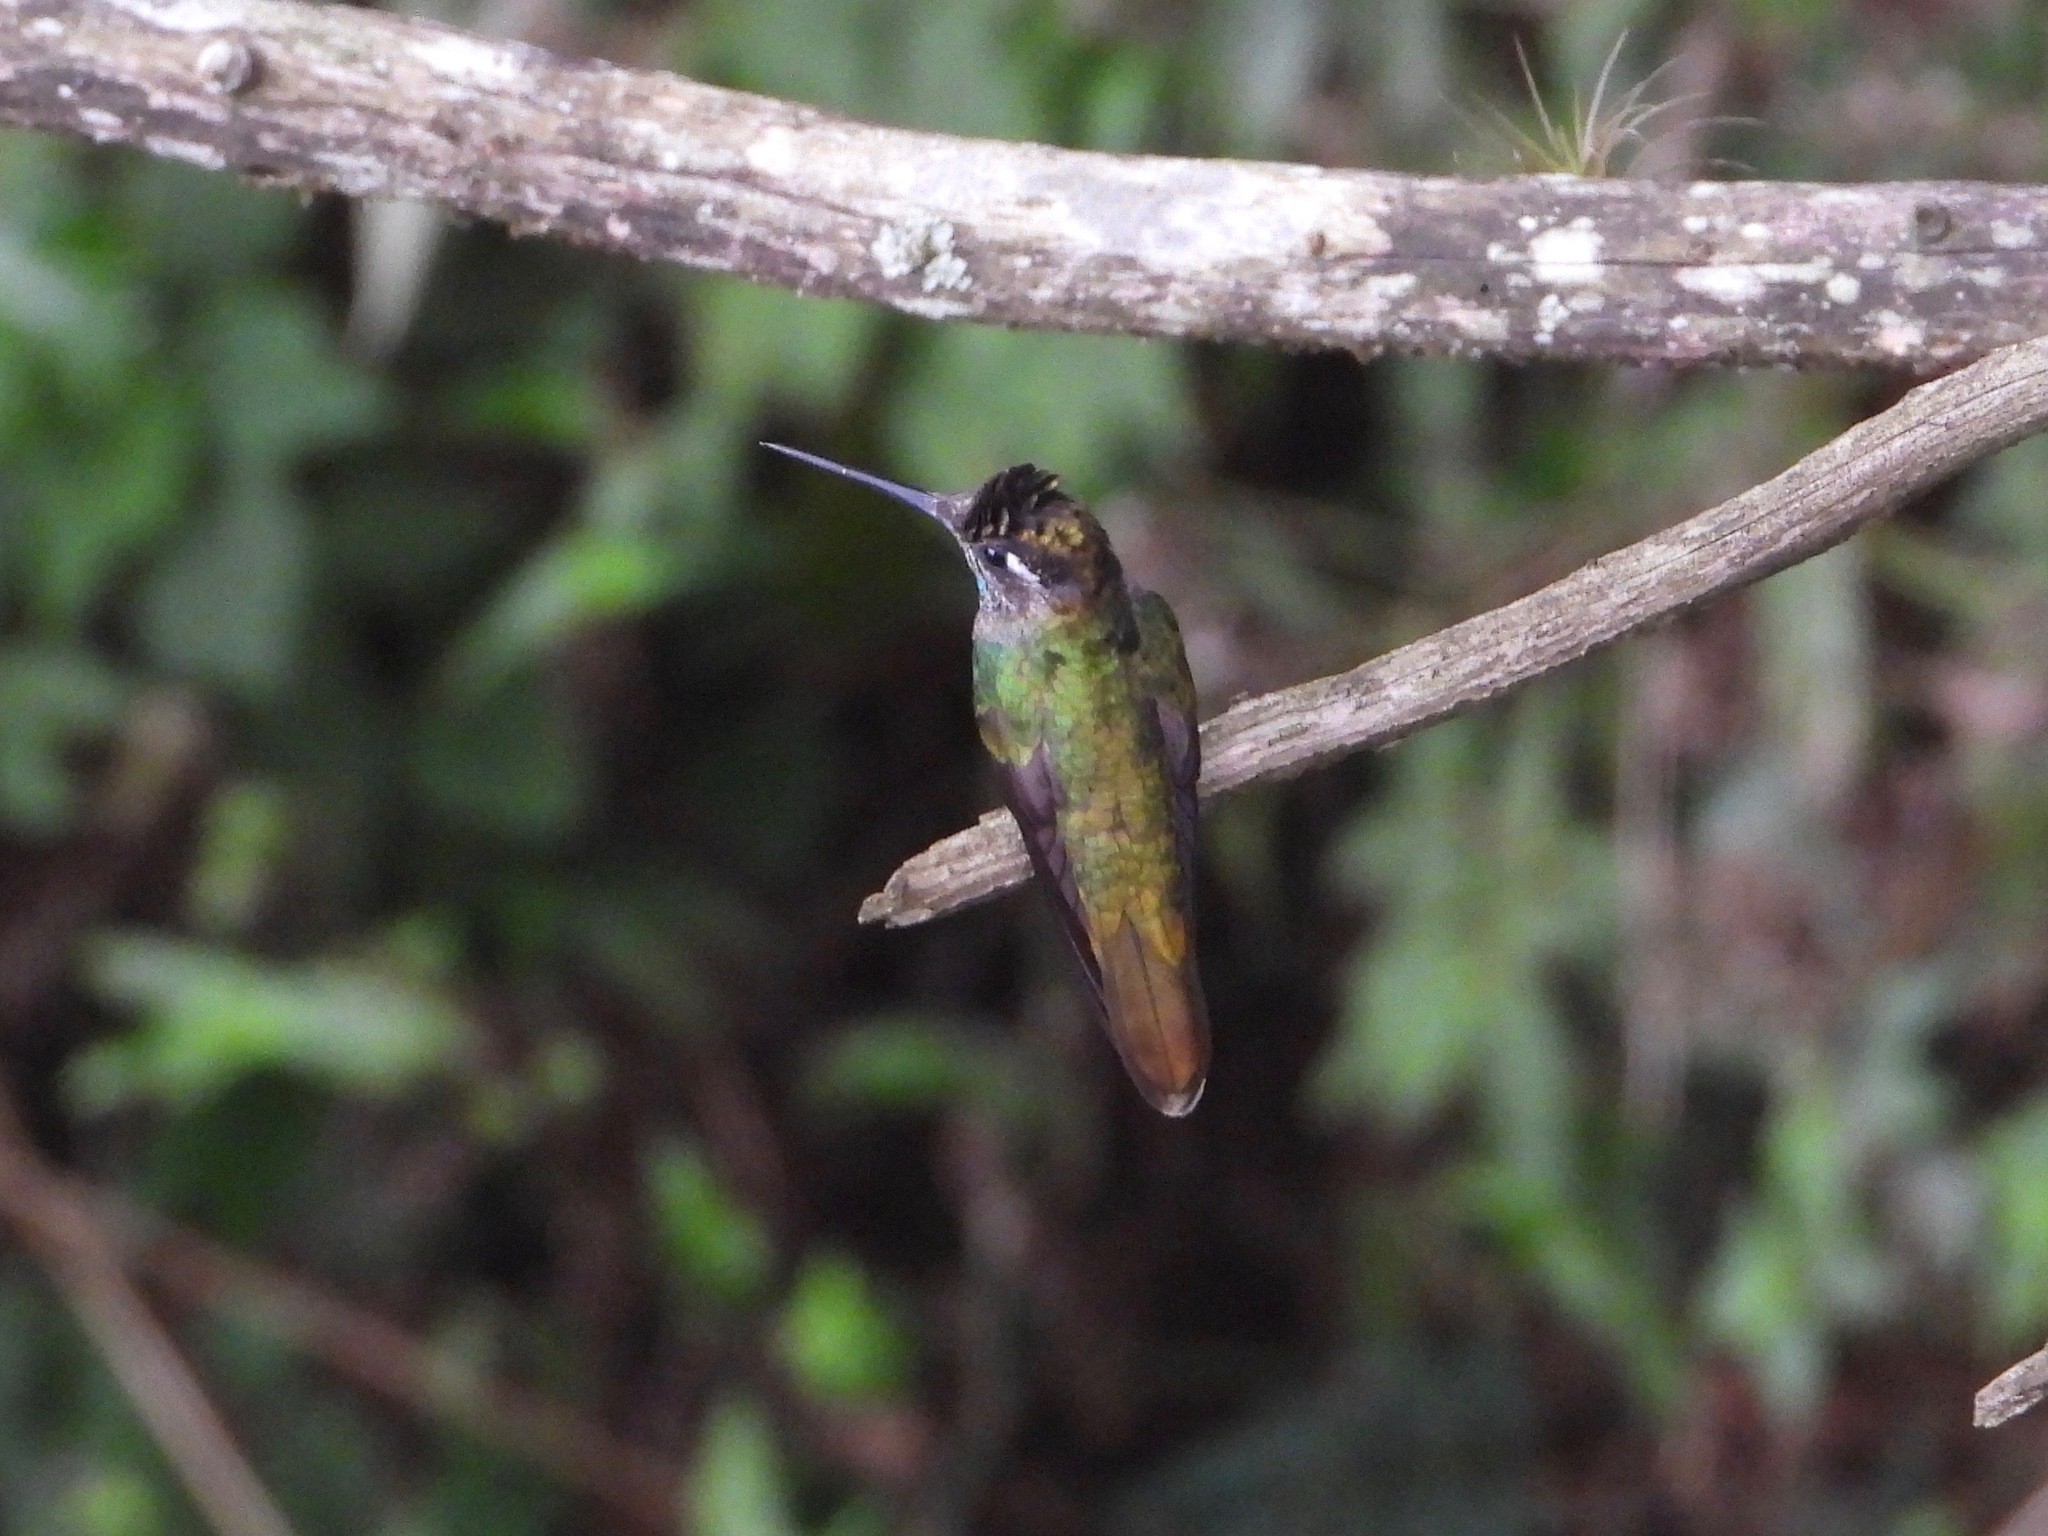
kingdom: Animalia
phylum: Chordata
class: Aves
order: Apodiformes
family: Trochilidae
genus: Eugenes
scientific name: Eugenes fulgens
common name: Magnificent hummingbird
